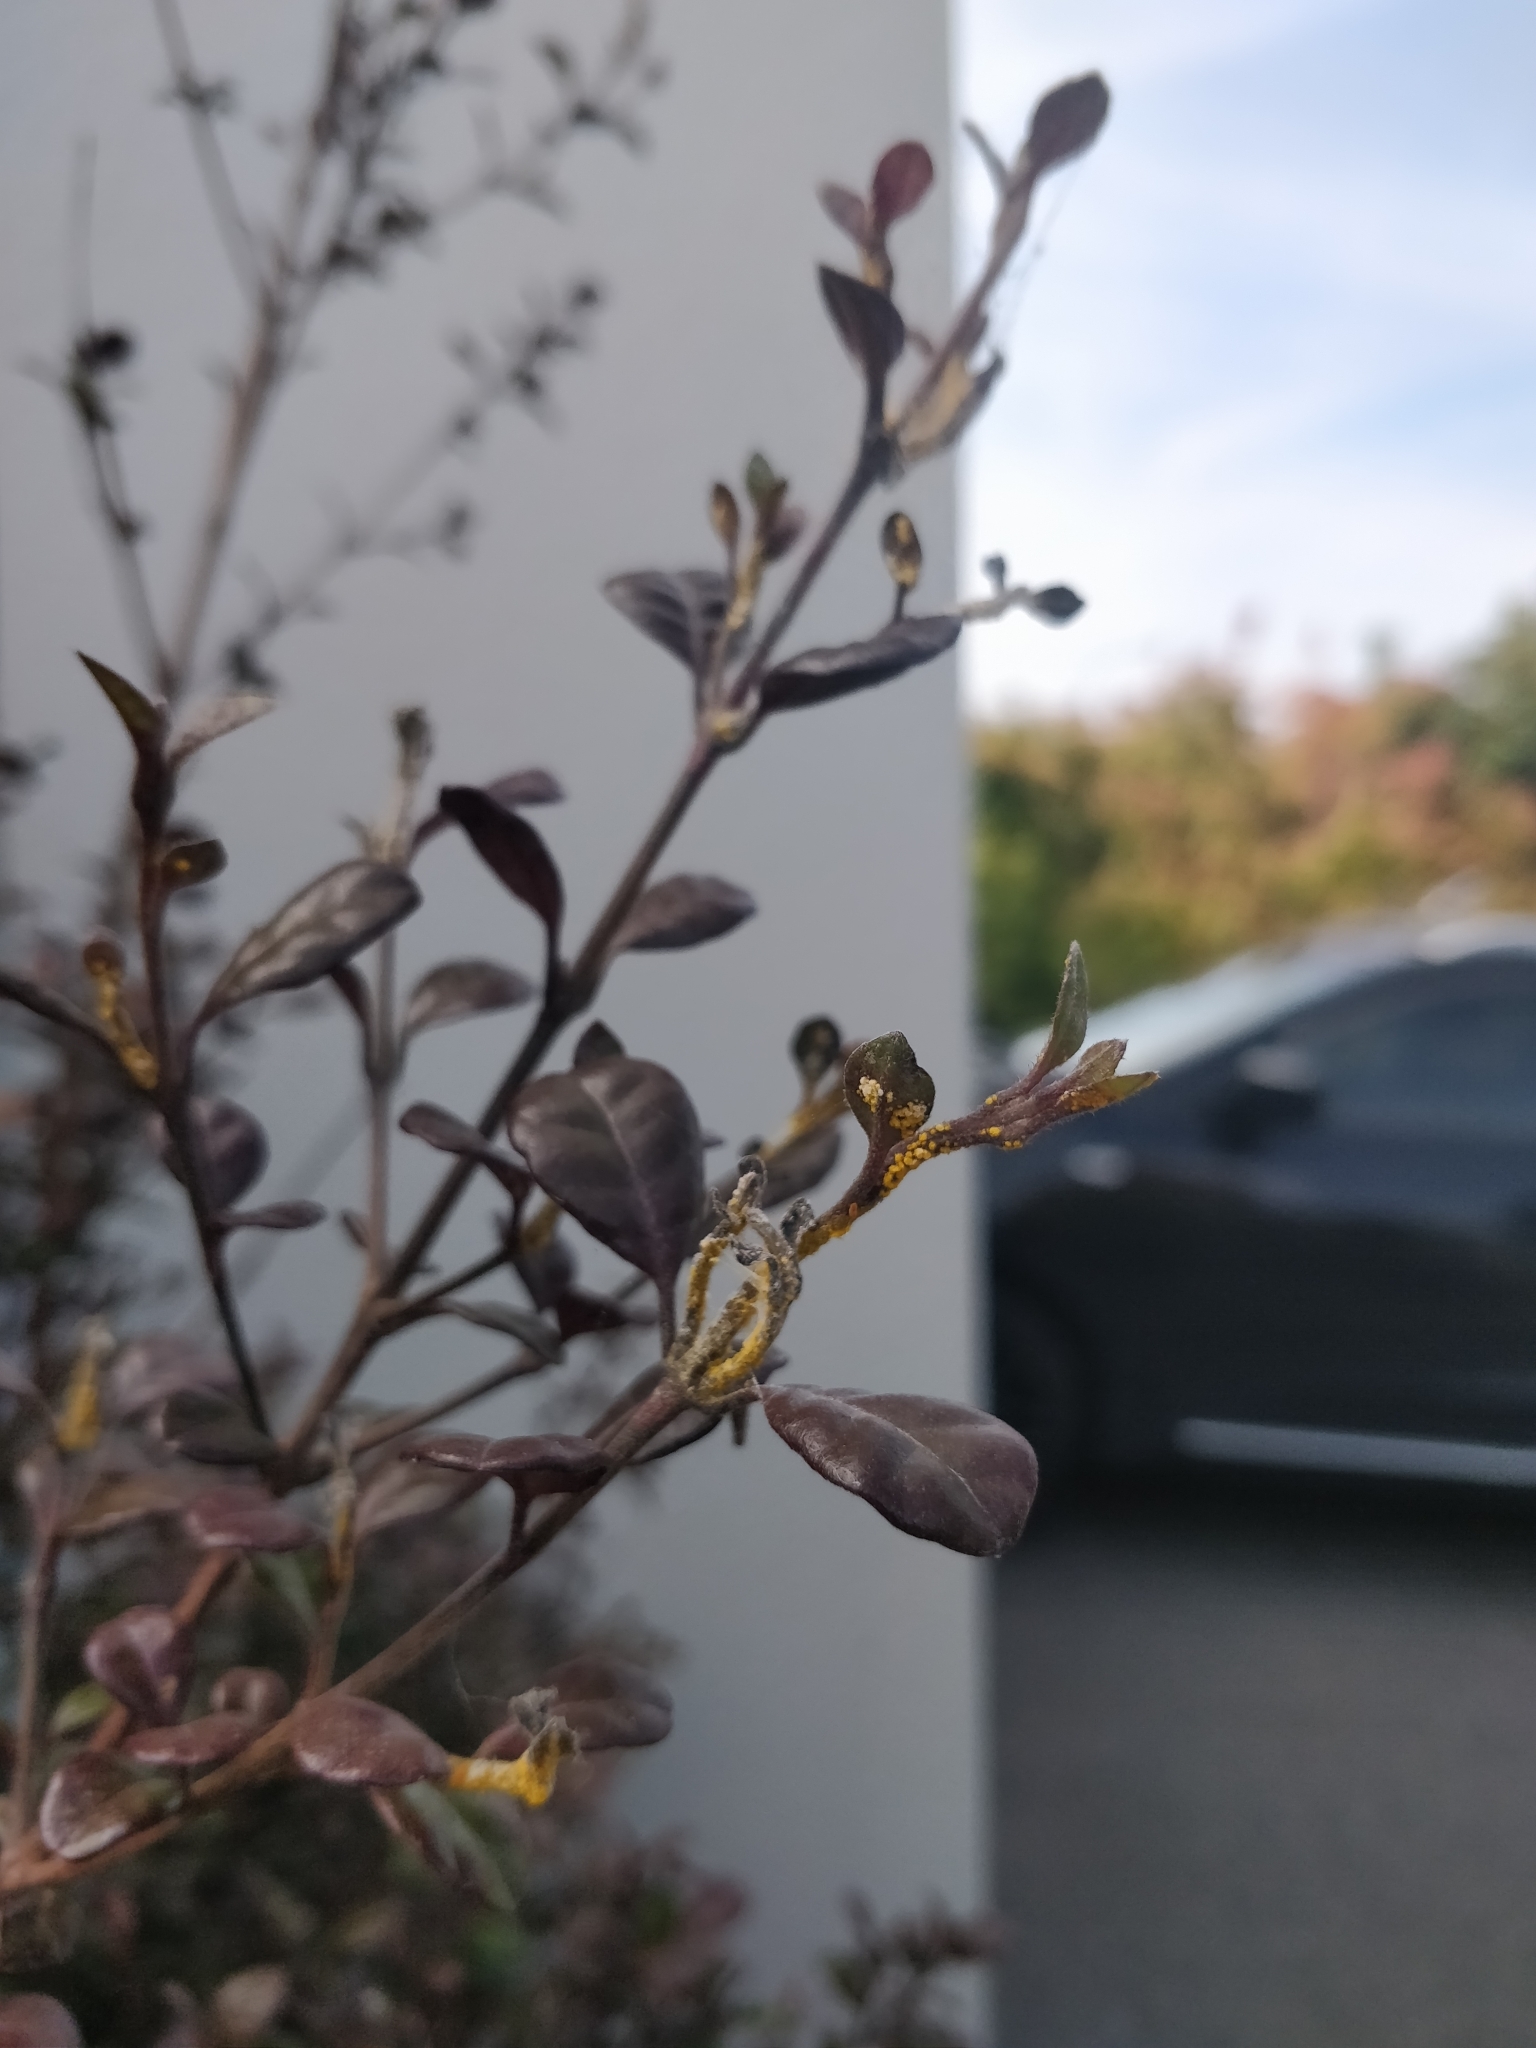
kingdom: Fungi
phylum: Basidiomycota
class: Pucciniomycetes
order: Pucciniales
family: Sphaerophragmiaceae
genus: Austropuccinia
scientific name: Austropuccinia psidii
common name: Myrtle rust
